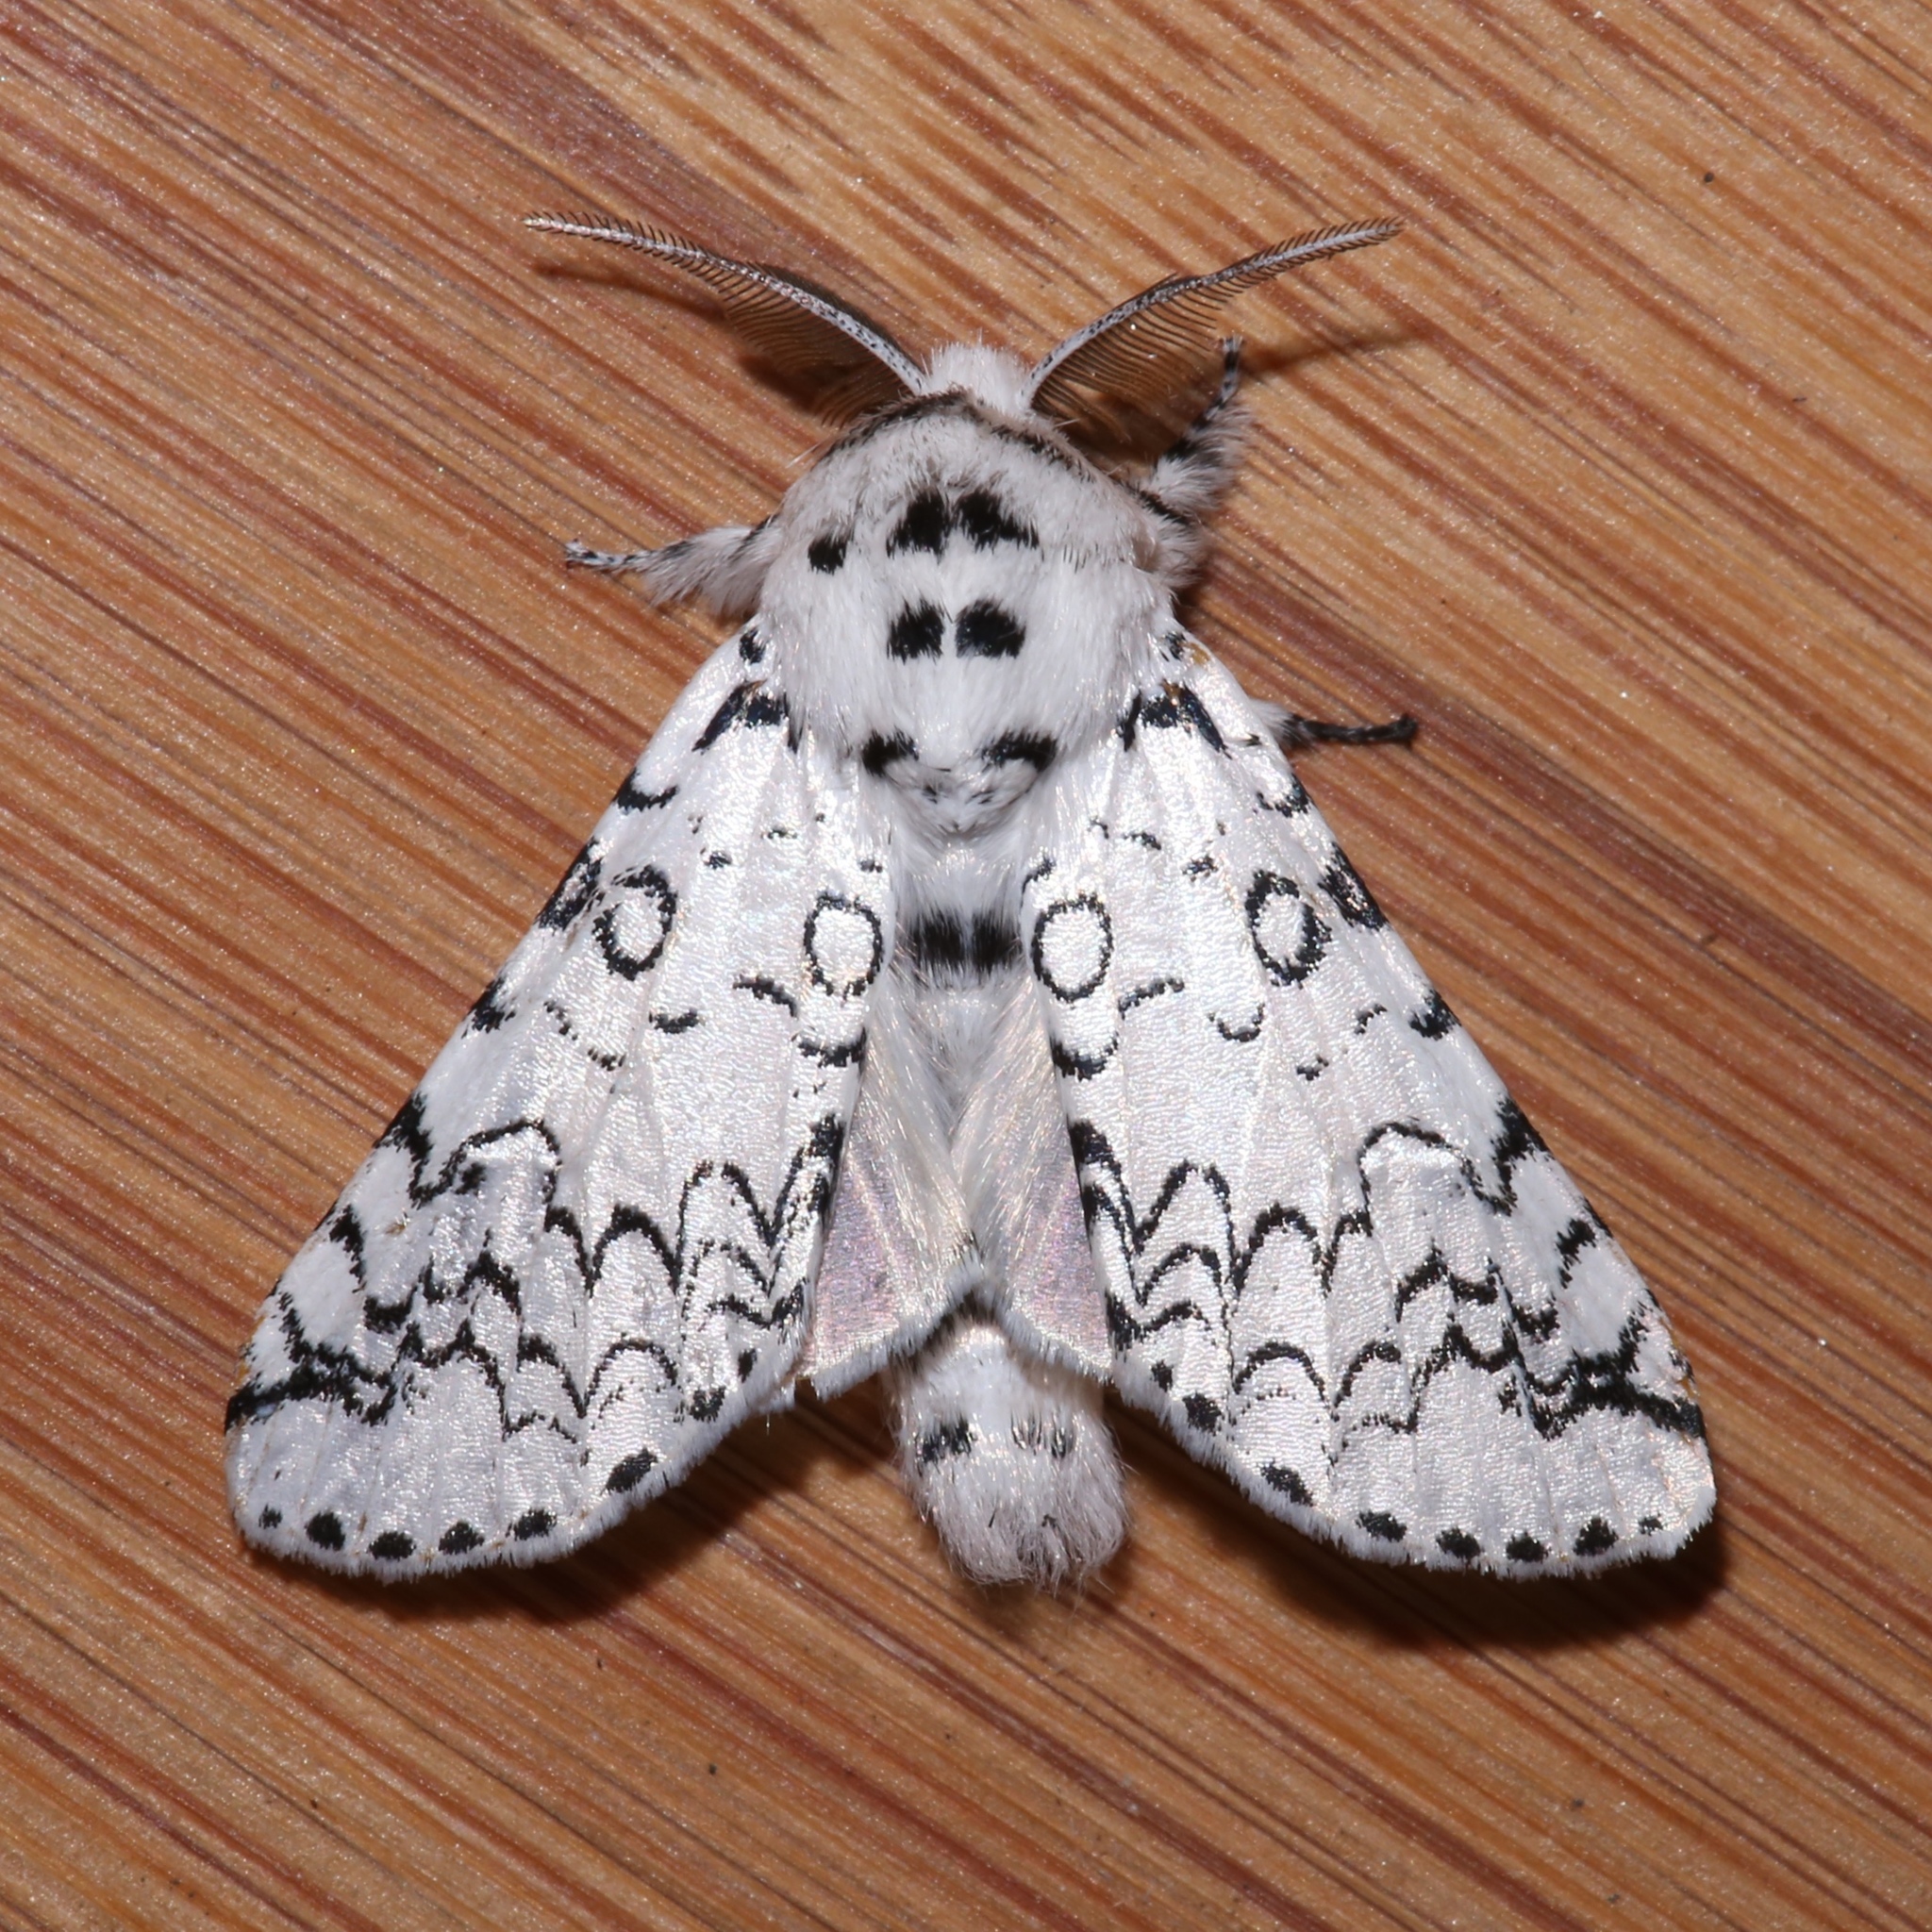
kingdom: Animalia
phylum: Arthropoda
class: Insecta
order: Lepidoptera
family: Notodontidae
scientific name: Notodontidae
